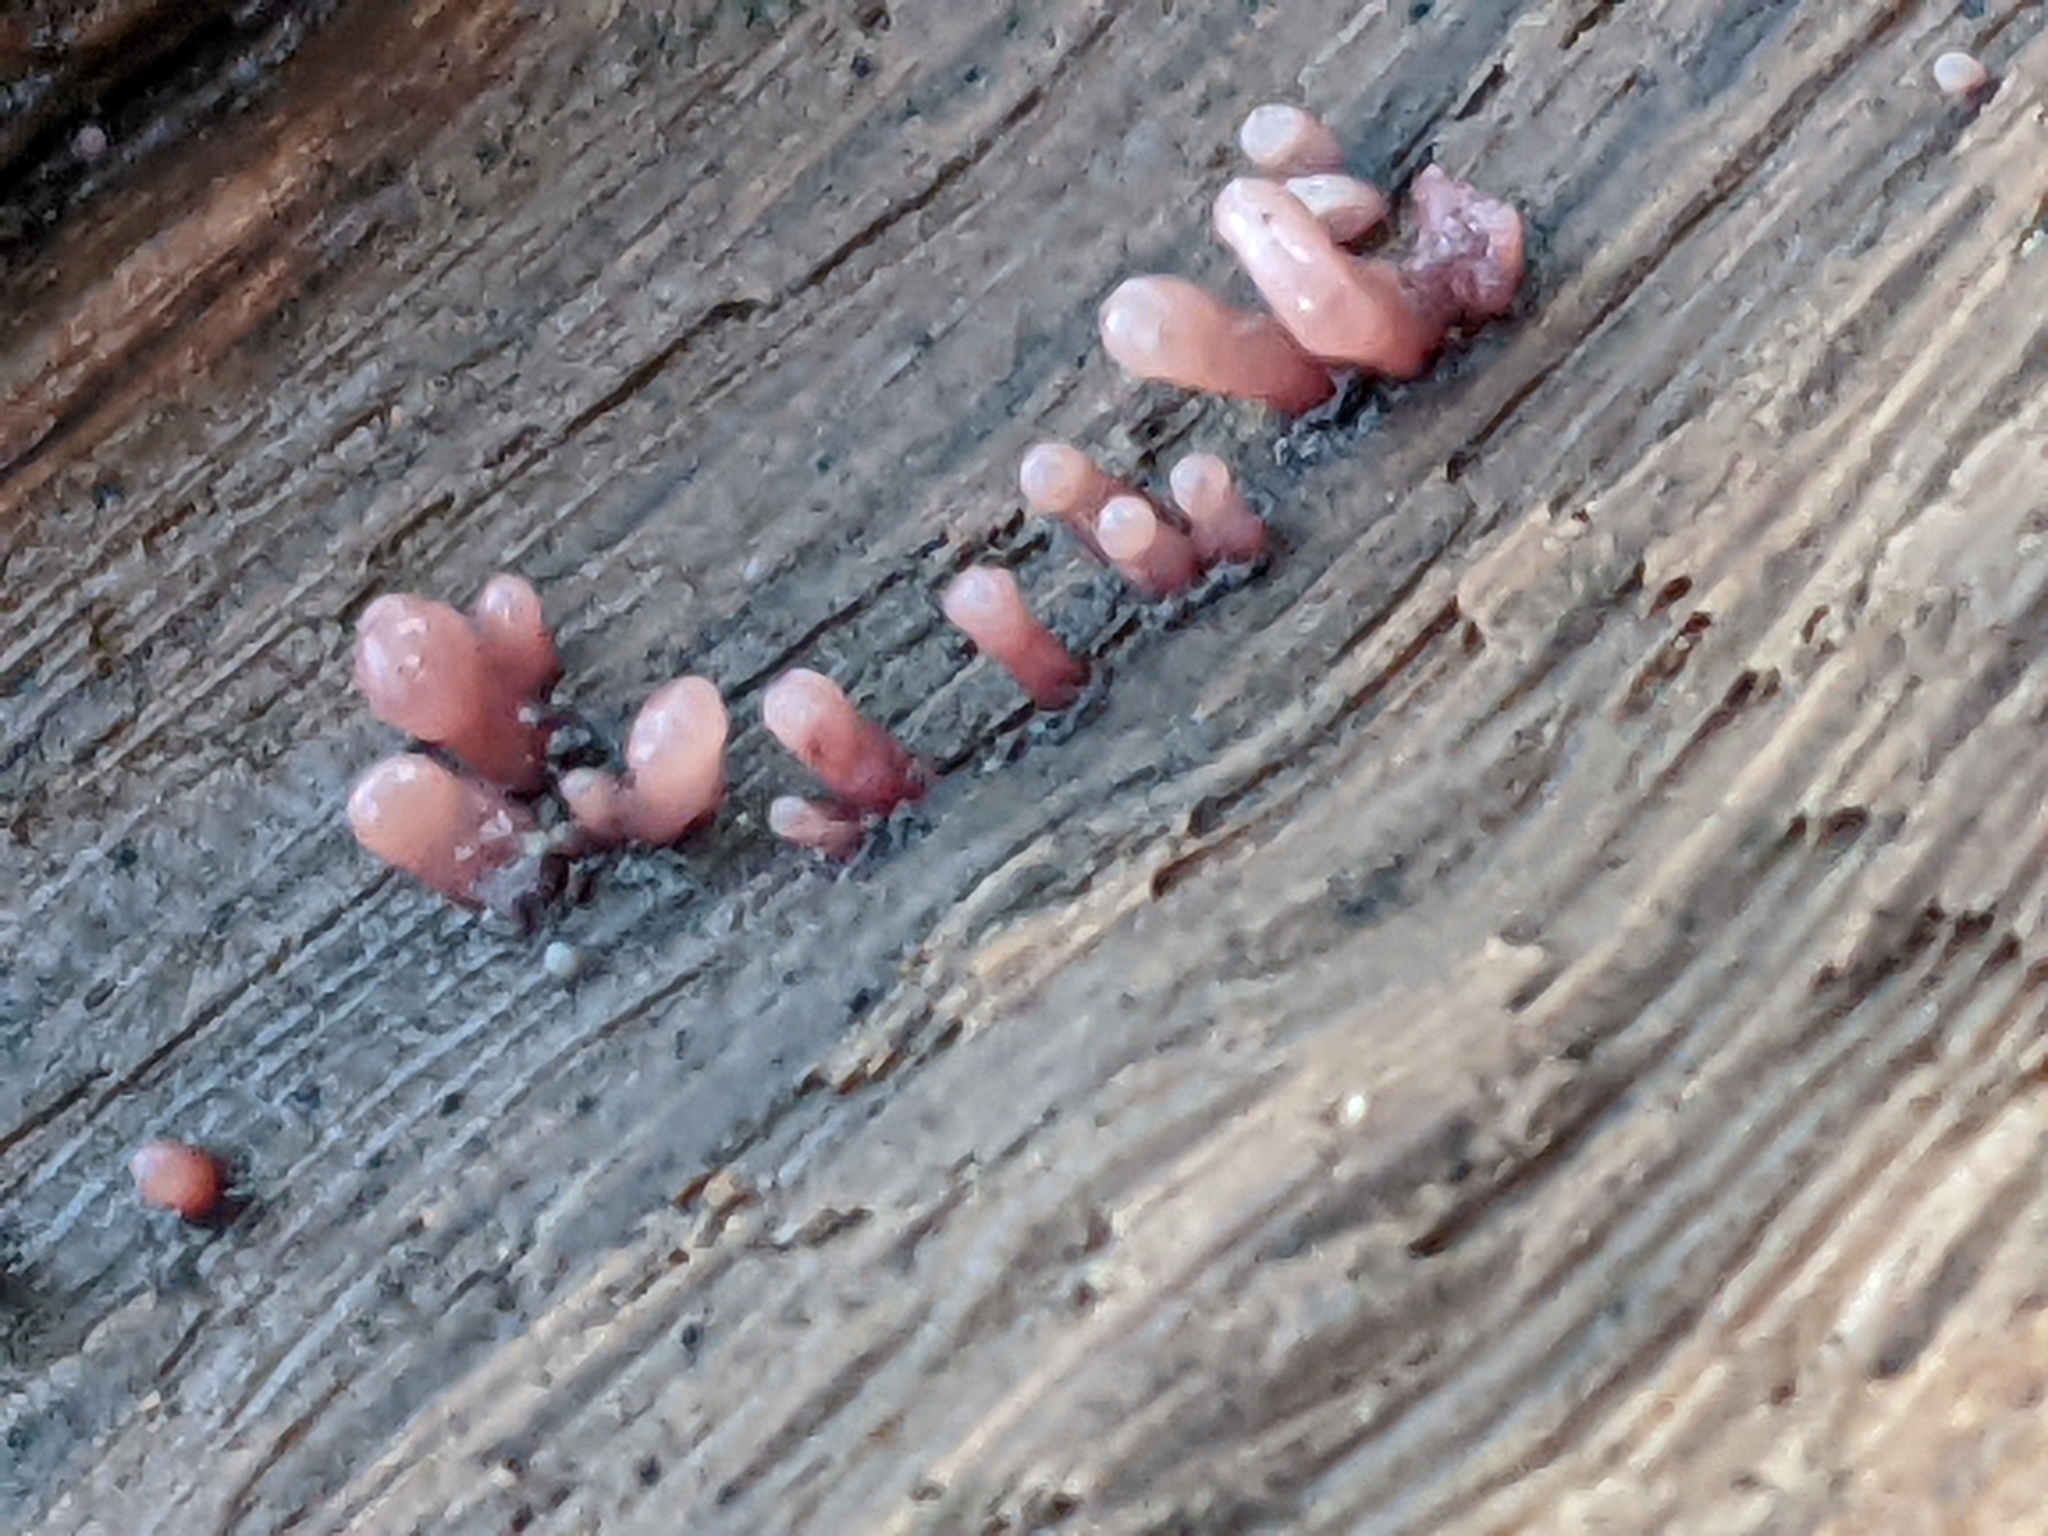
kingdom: Fungi
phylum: Ascomycota
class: Leotiomycetes
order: Helotiales
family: Gelatinodiscaceae
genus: Ascocoryne
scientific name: Ascocoryne sarcoides
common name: Purple jellydisc
